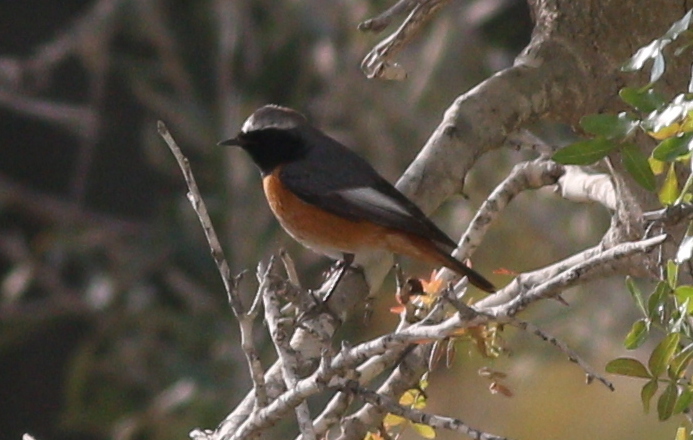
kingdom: Animalia
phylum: Chordata
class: Aves
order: Passeriformes
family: Muscicapidae
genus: Phoenicurus
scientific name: Phoenicurus phoenicurus
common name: Common redstart
